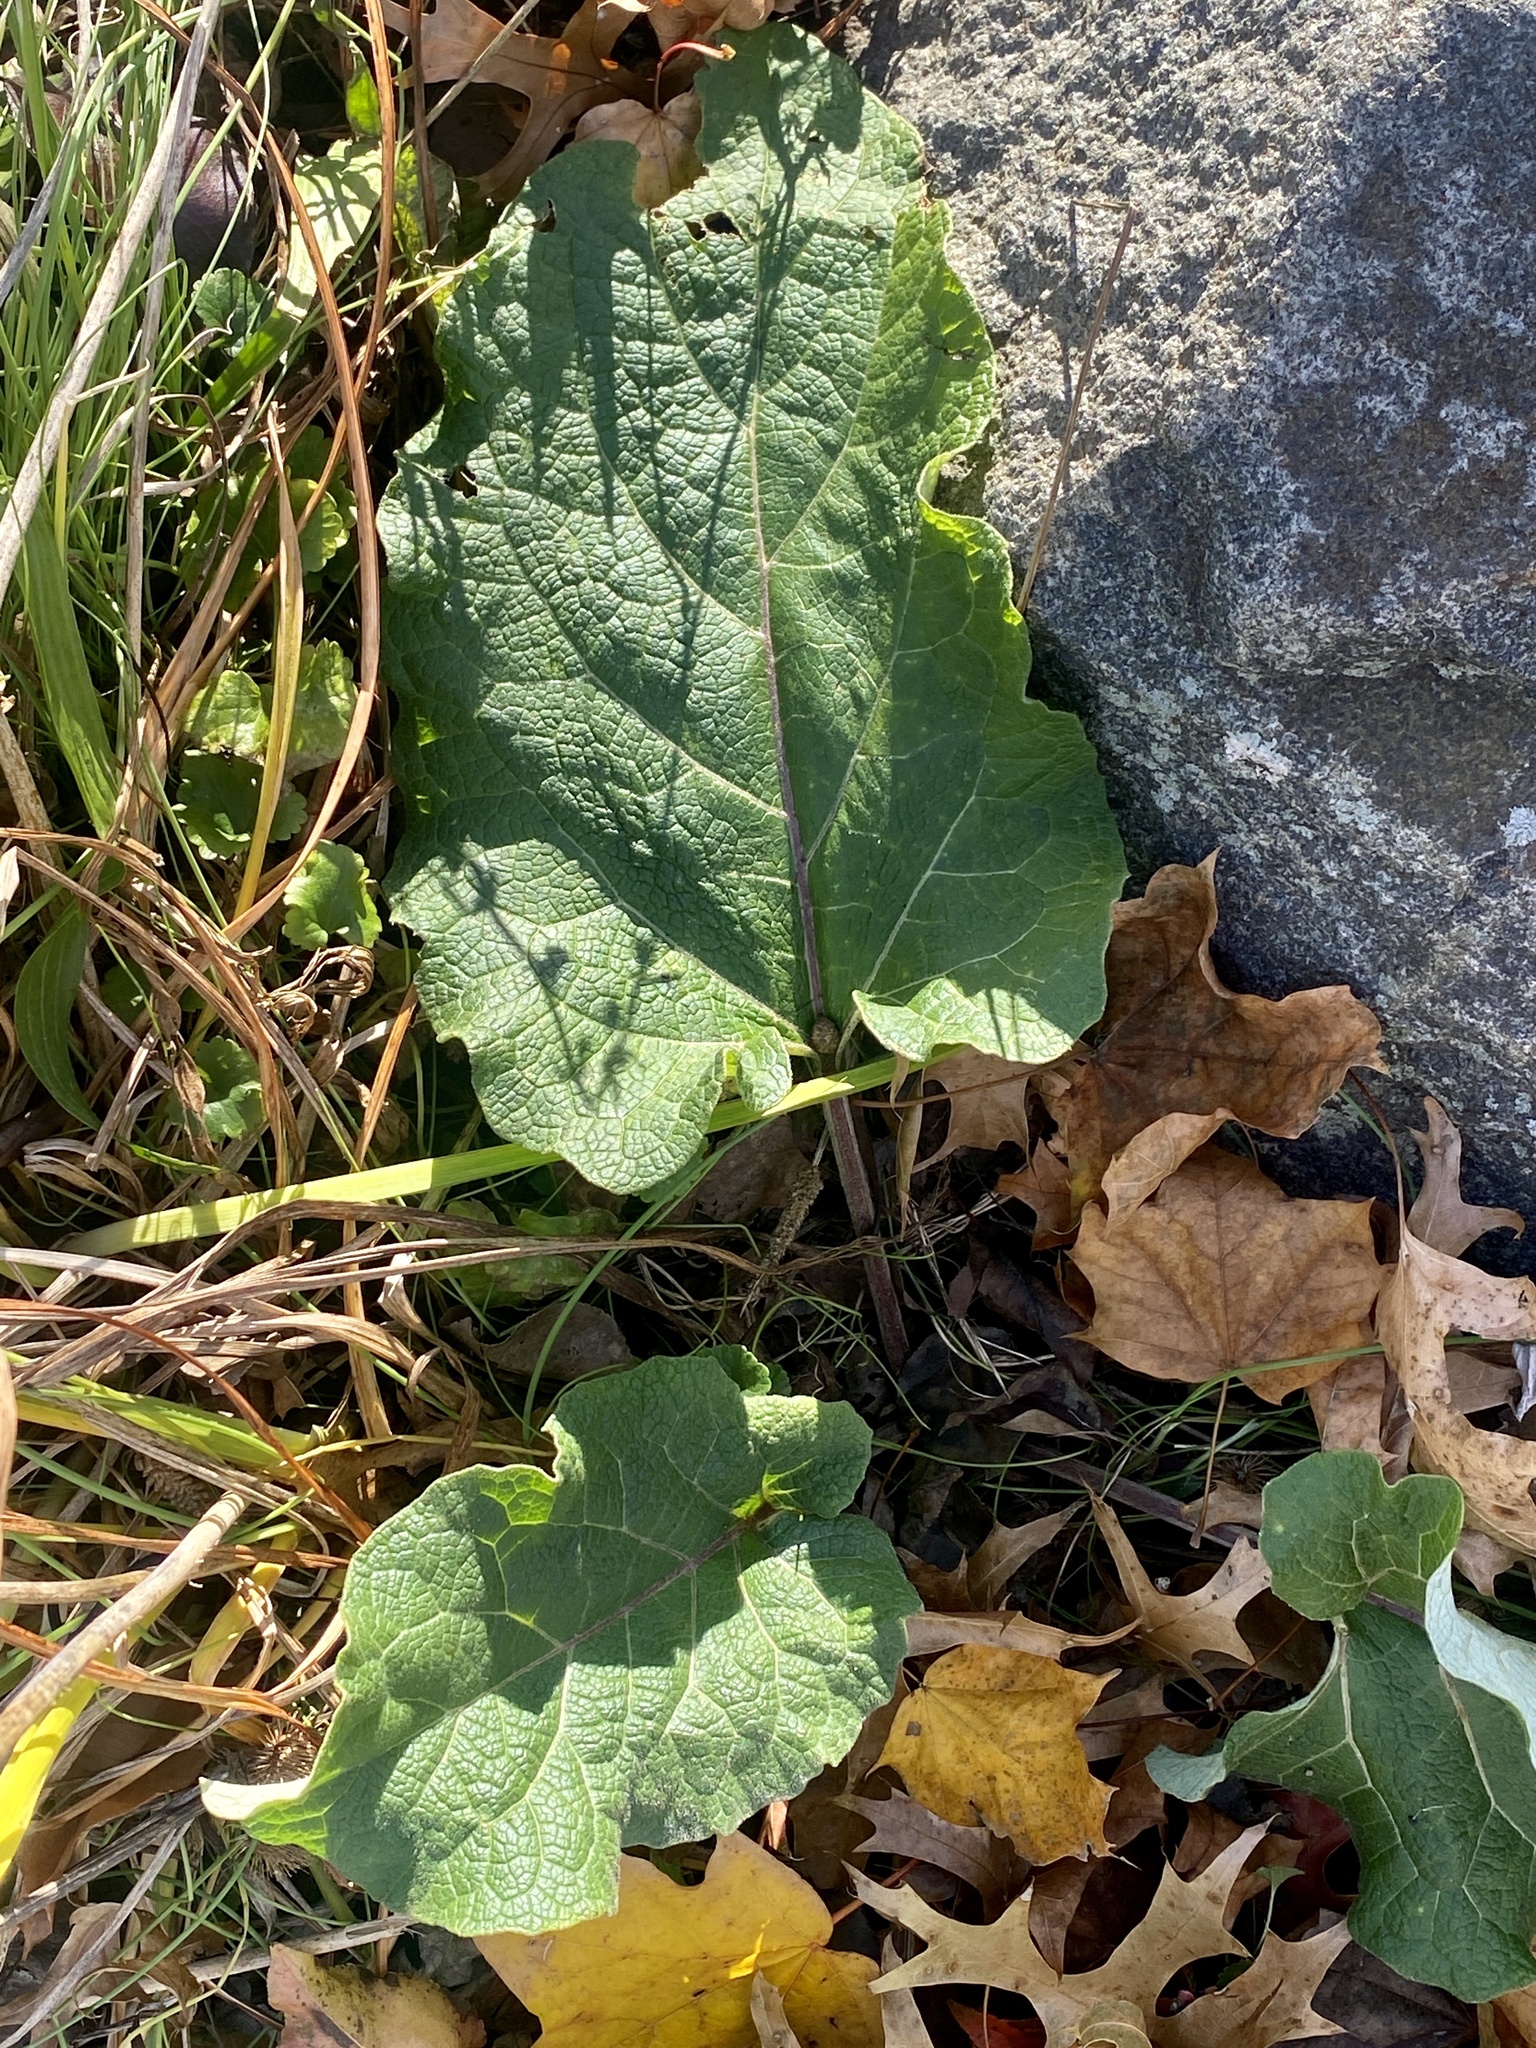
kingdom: Plantae
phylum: Tracheophyta
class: Magnoliopsida
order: Asterales
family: Asteraceae
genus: Arctium
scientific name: Arctium minus
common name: Lesser burdock
